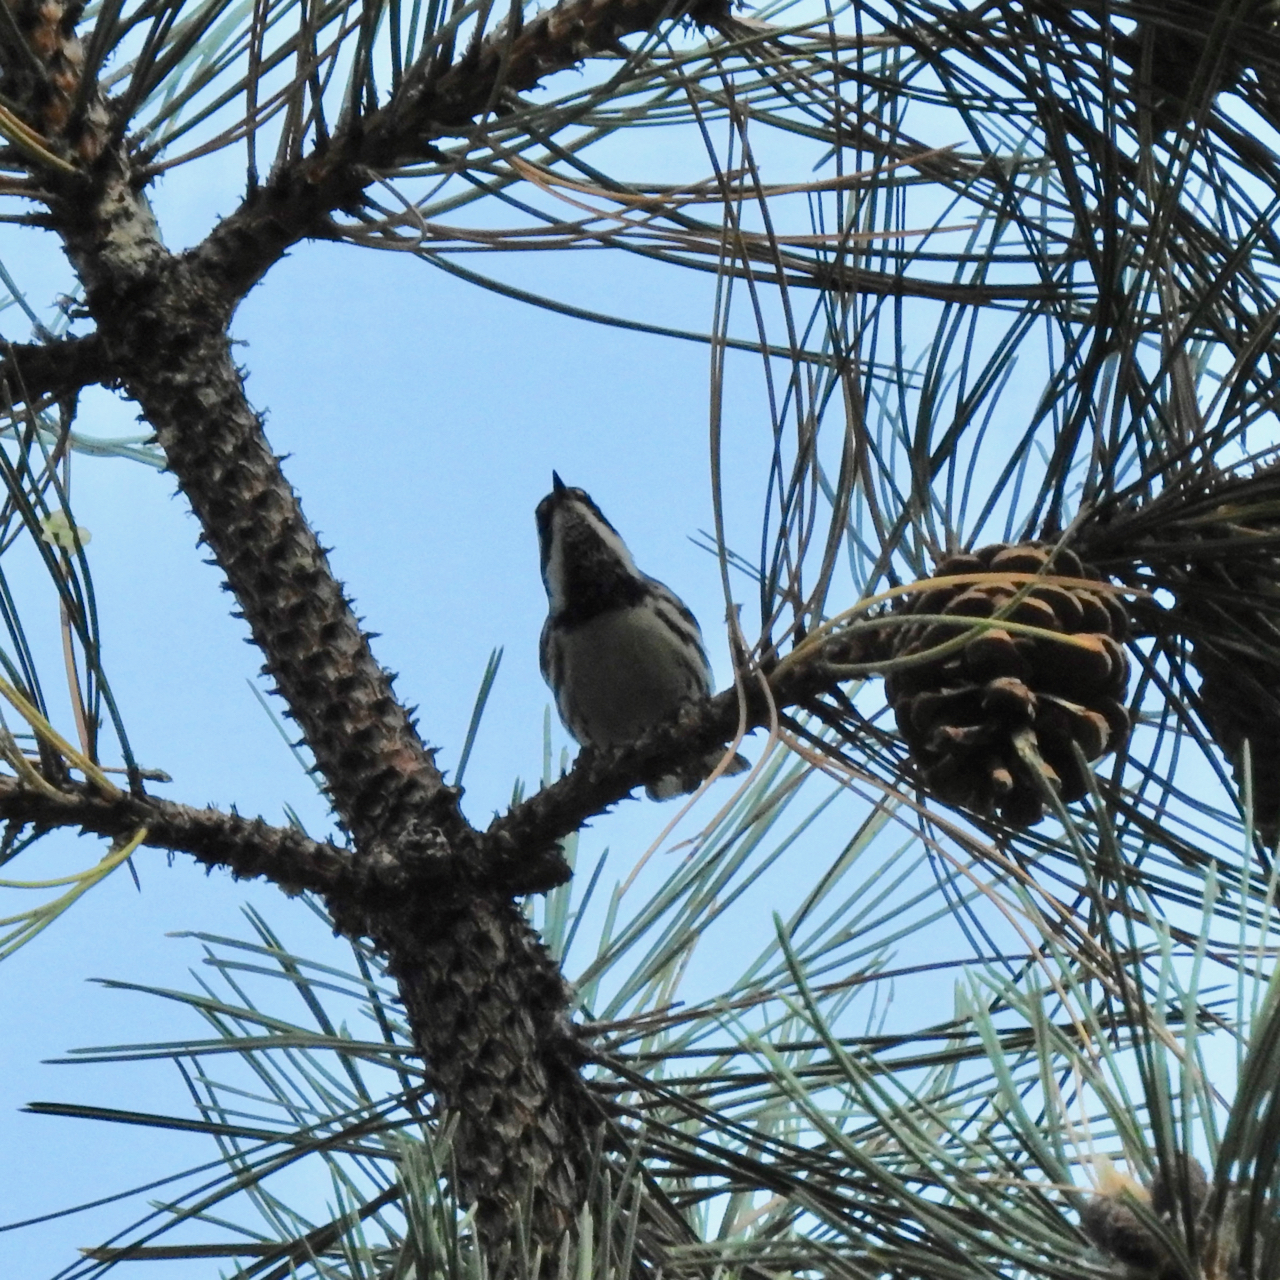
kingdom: Animalia
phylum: Chordata
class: Aves
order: Passeriformes
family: Parulidae
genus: Setophaga
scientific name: Setophaga nigrescens
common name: Black-throated gray warbler
